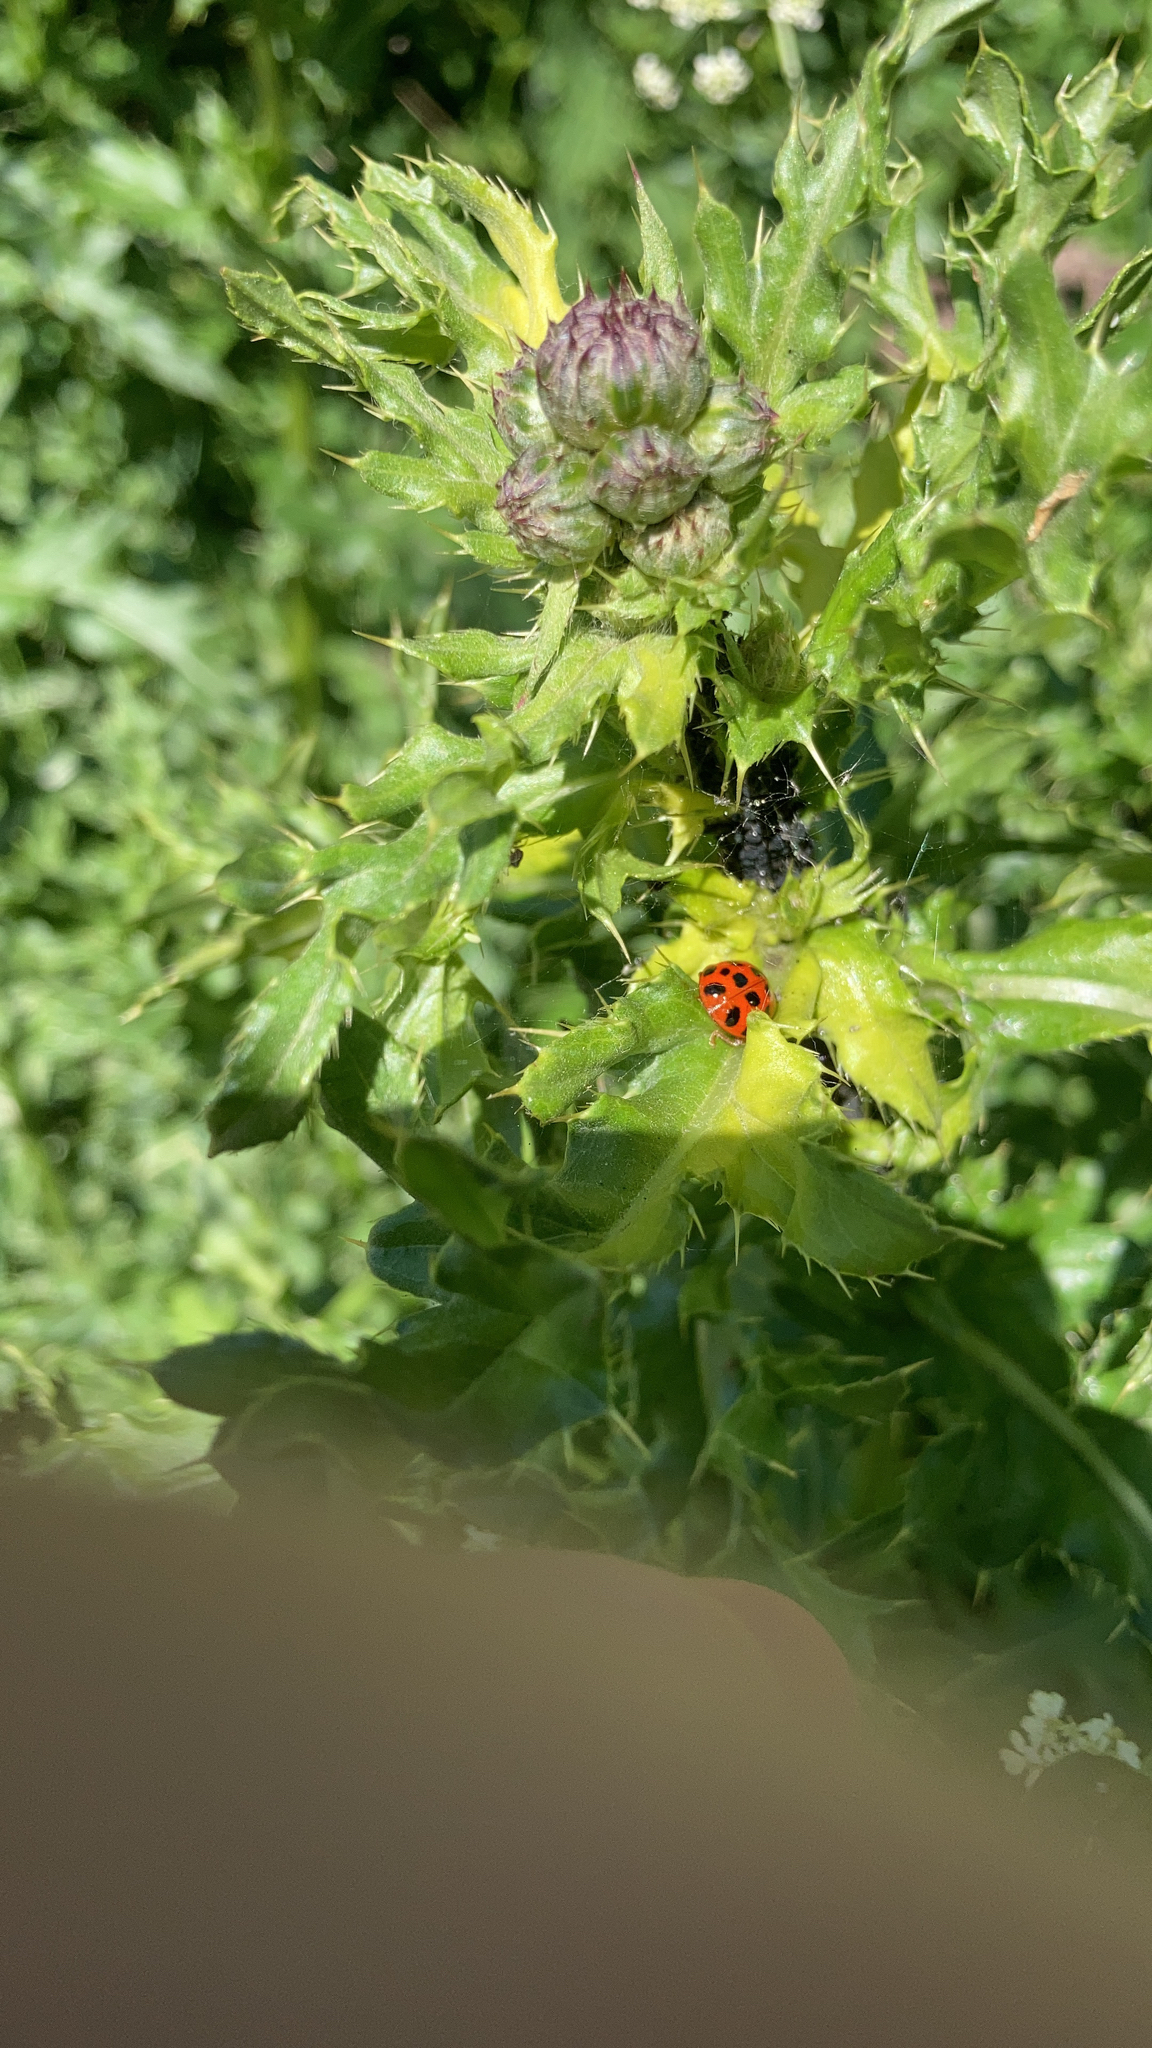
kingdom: Animalia
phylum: Arthropoda
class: Insecta
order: Coleoptera
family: Coccinellidae
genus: Harmonia
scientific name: Harmonia axyridis
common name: Harlequin ladybird
